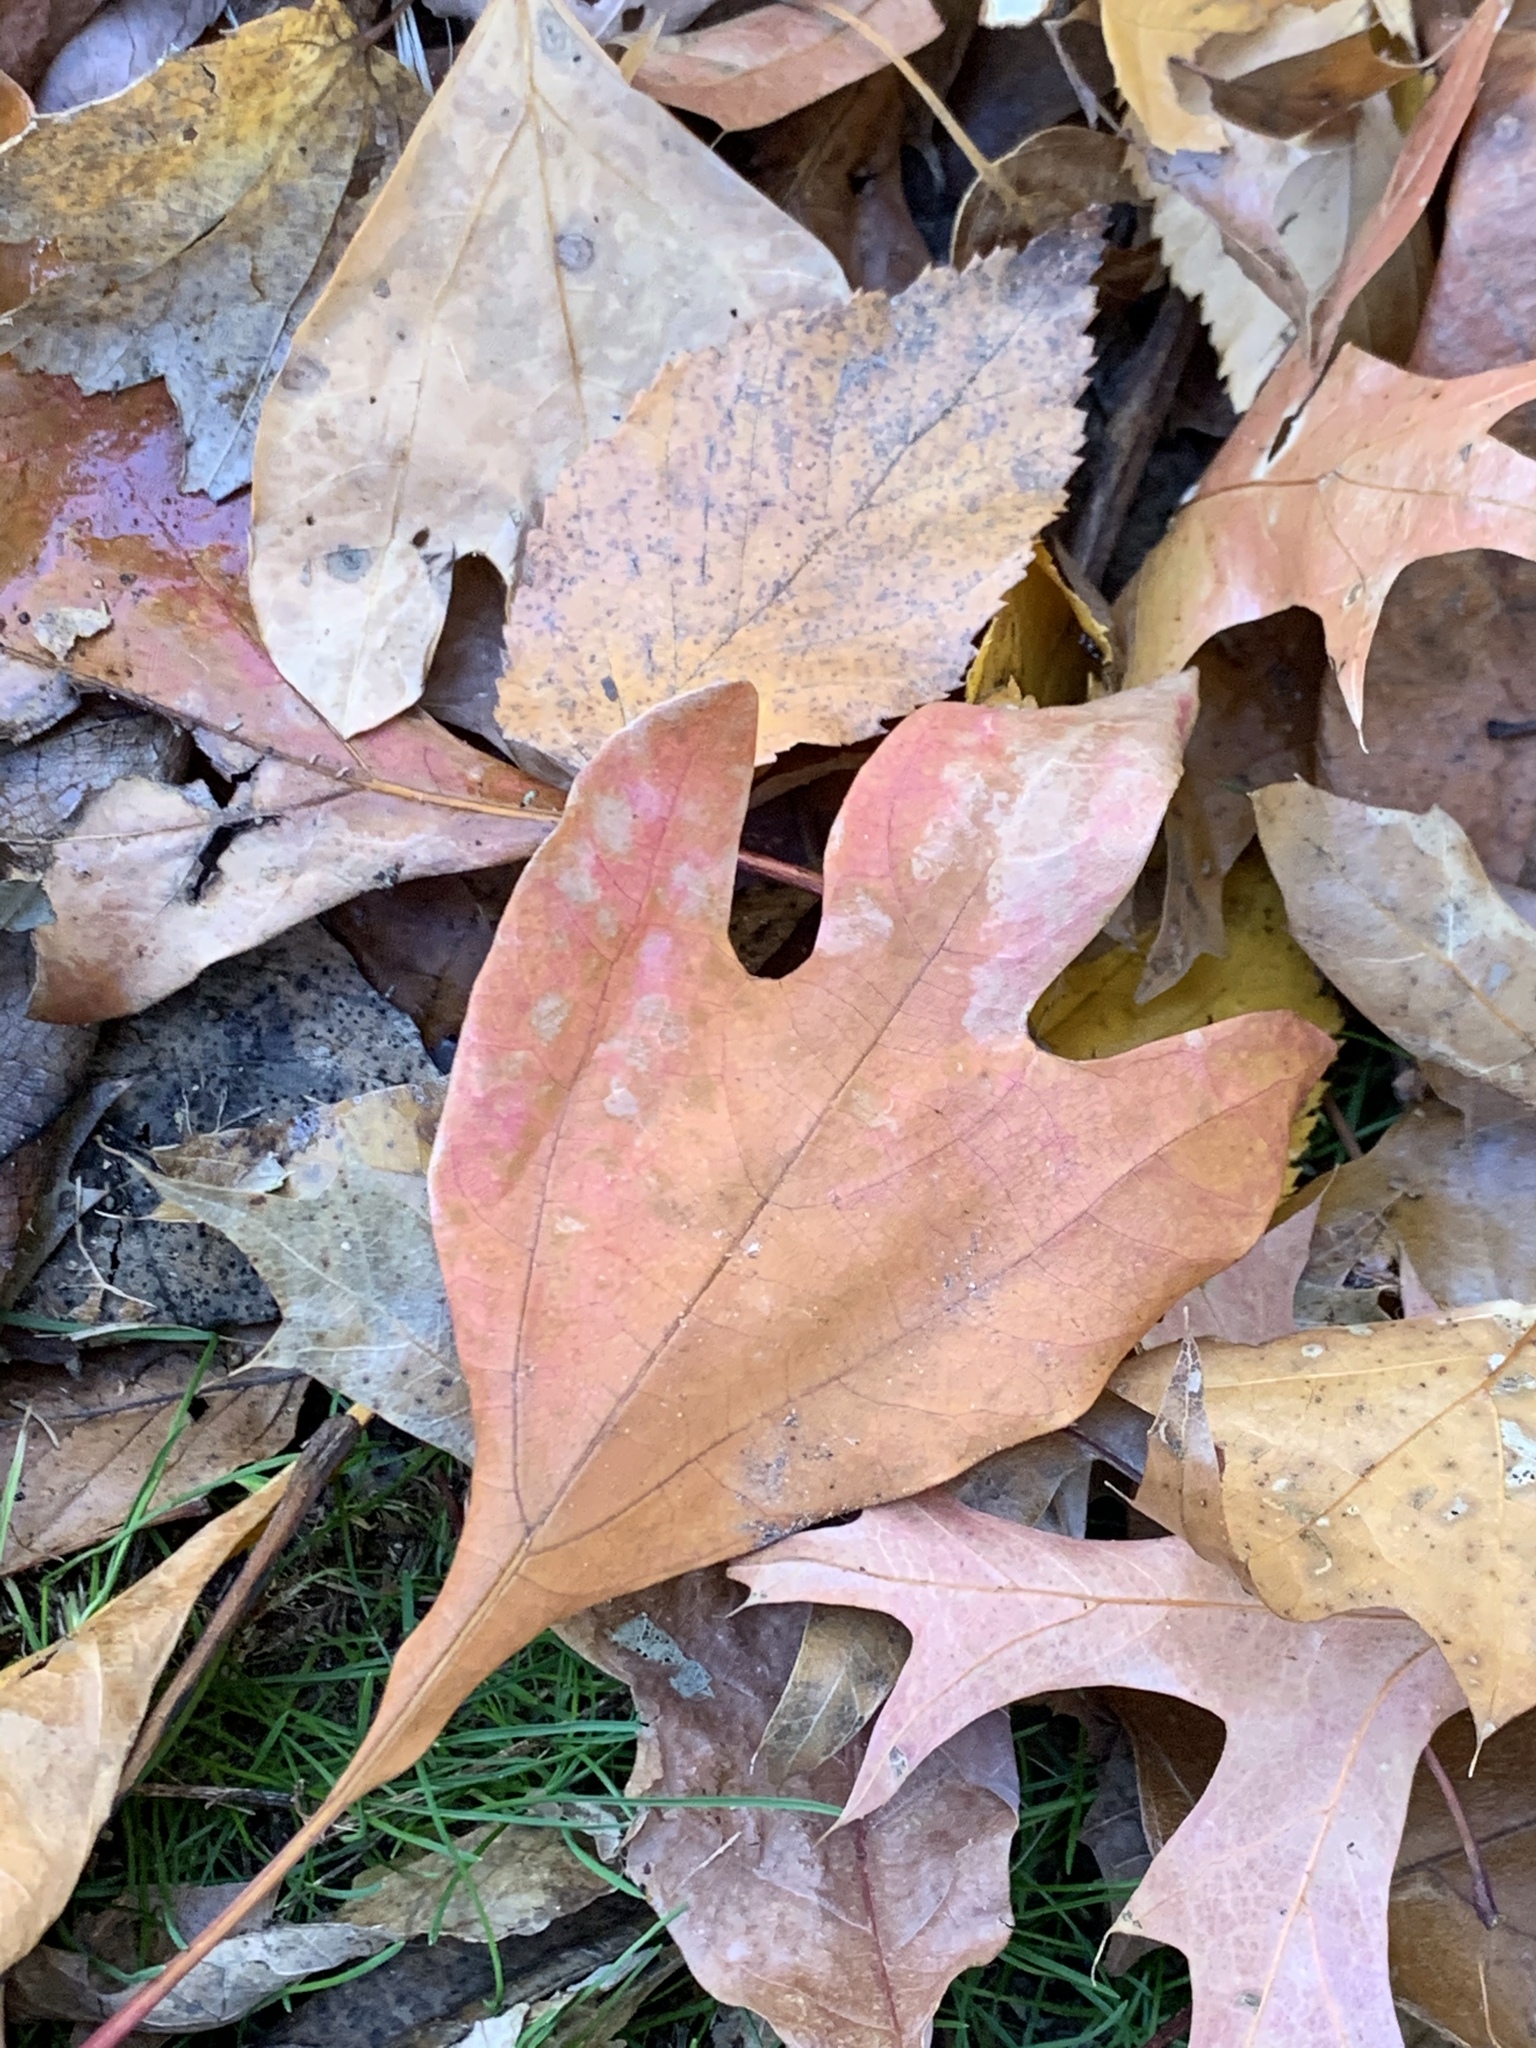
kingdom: Plantae
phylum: Tracheophyta
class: Magnoliopsida
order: Laurales
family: Lauraceae
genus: Sassafras
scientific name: Sassafras albidum
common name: Sassafras
